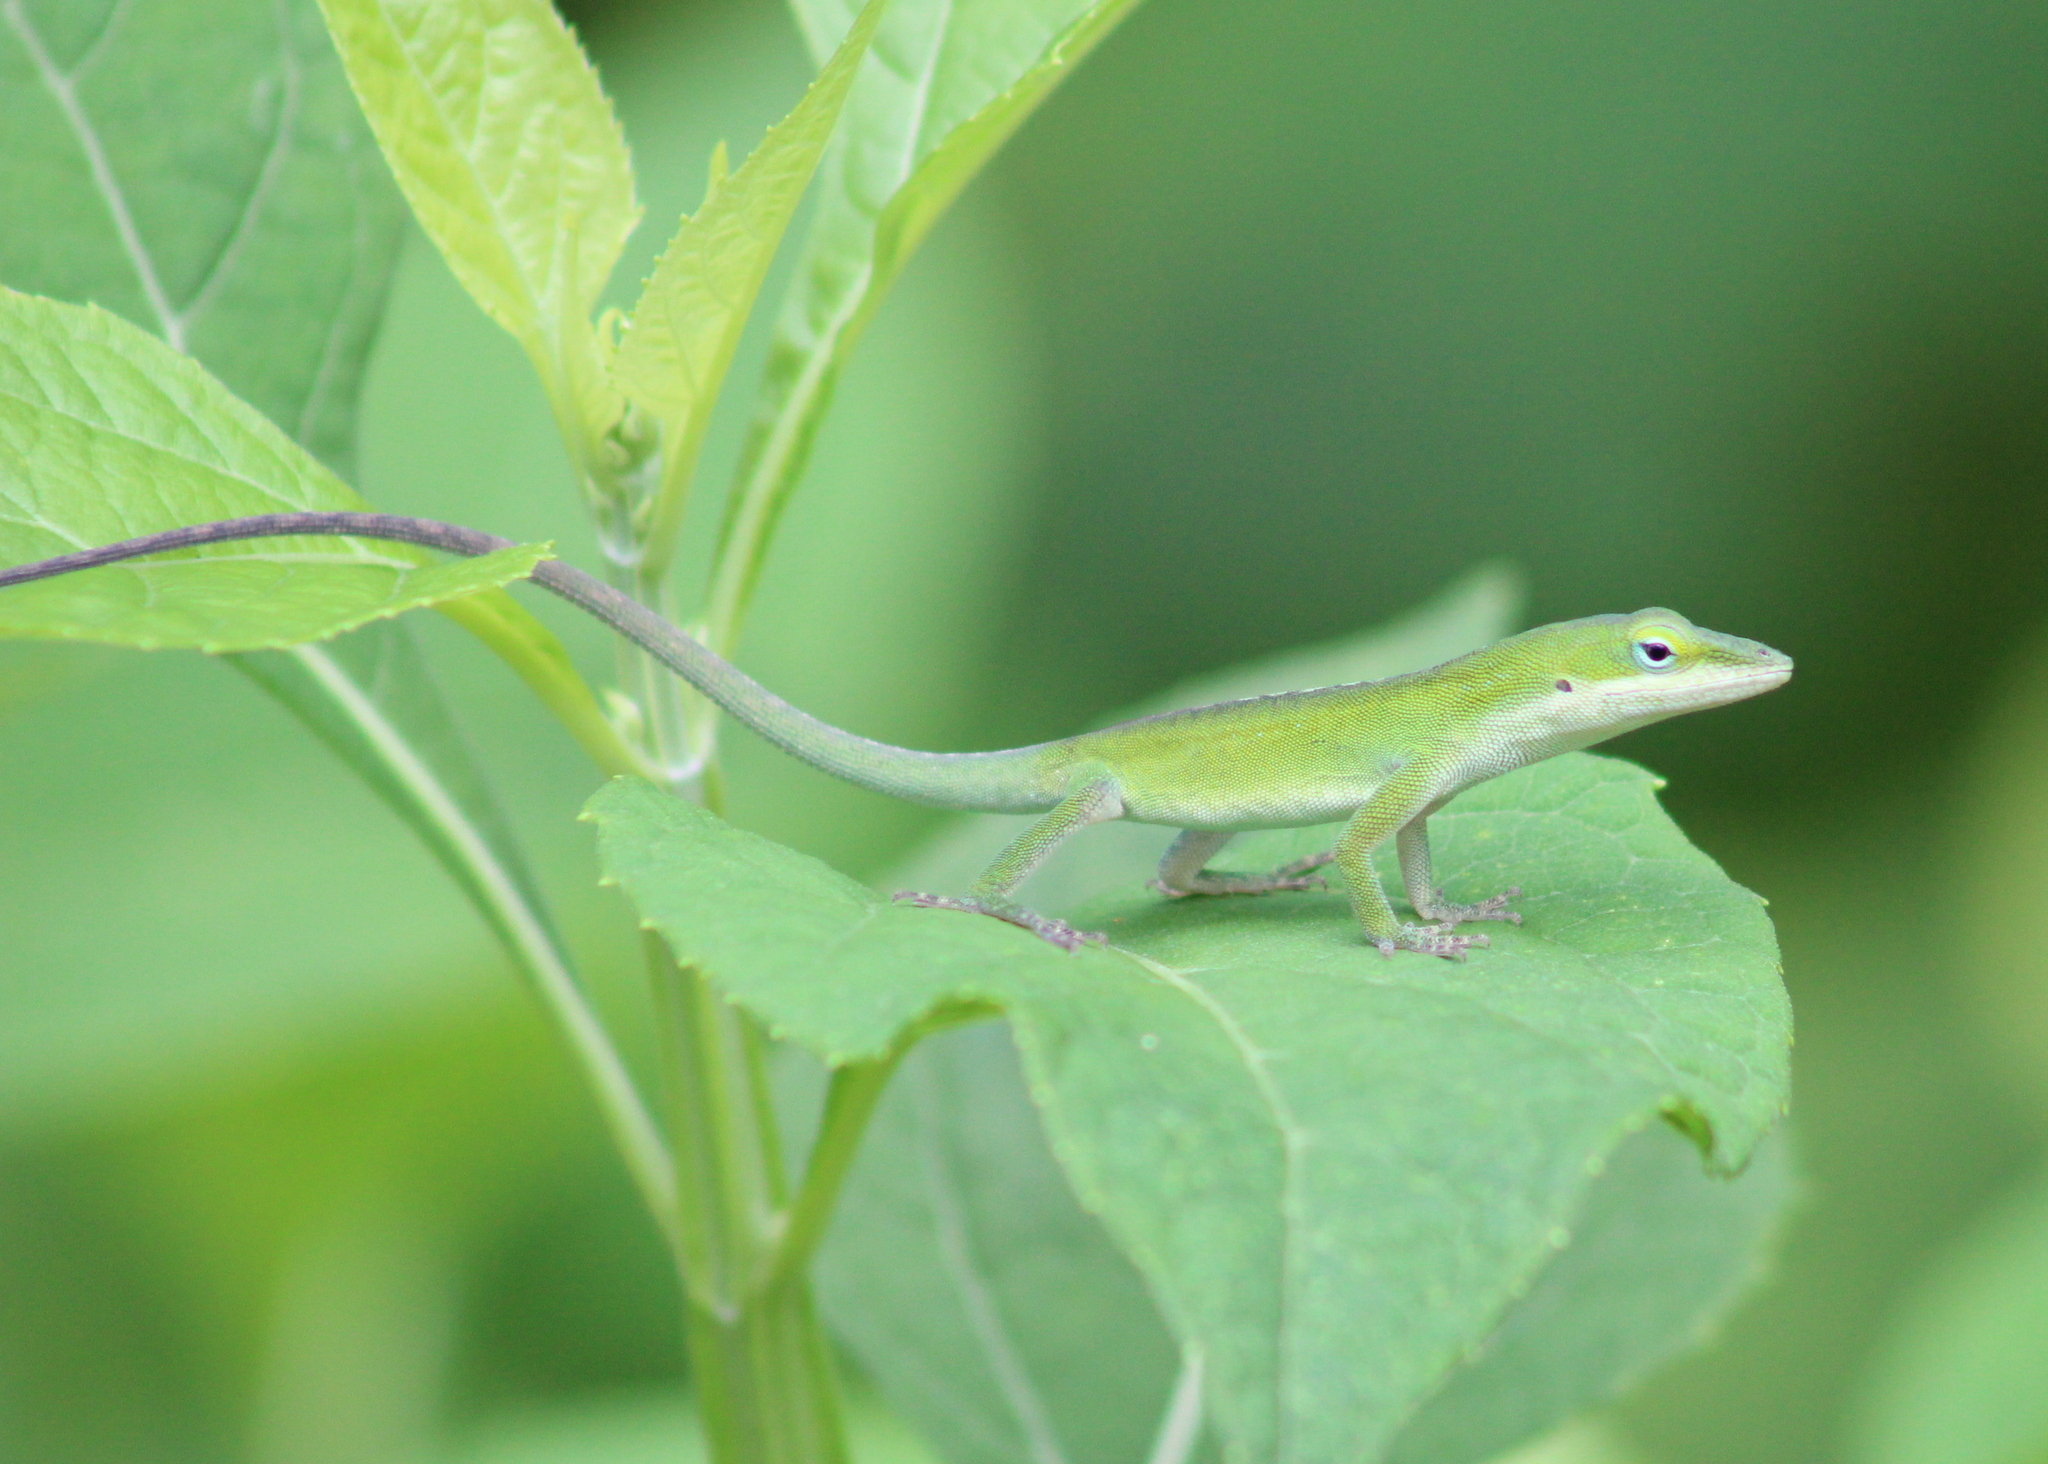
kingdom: Animalia
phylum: Chordata
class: Squamata
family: Dactyloidae
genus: Anolis
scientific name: Anolis carolinensis
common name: Green anole
